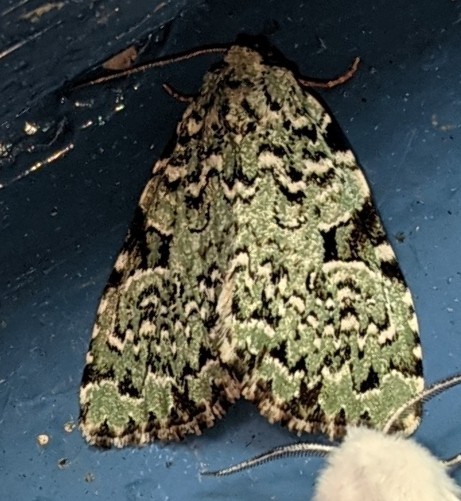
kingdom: Animalia
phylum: Arthropoda
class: Insecta
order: Lepidoptera
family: Noctuidae
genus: Leuconycta
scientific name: Leuconycta diphteroides
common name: Green leuconycta moth
